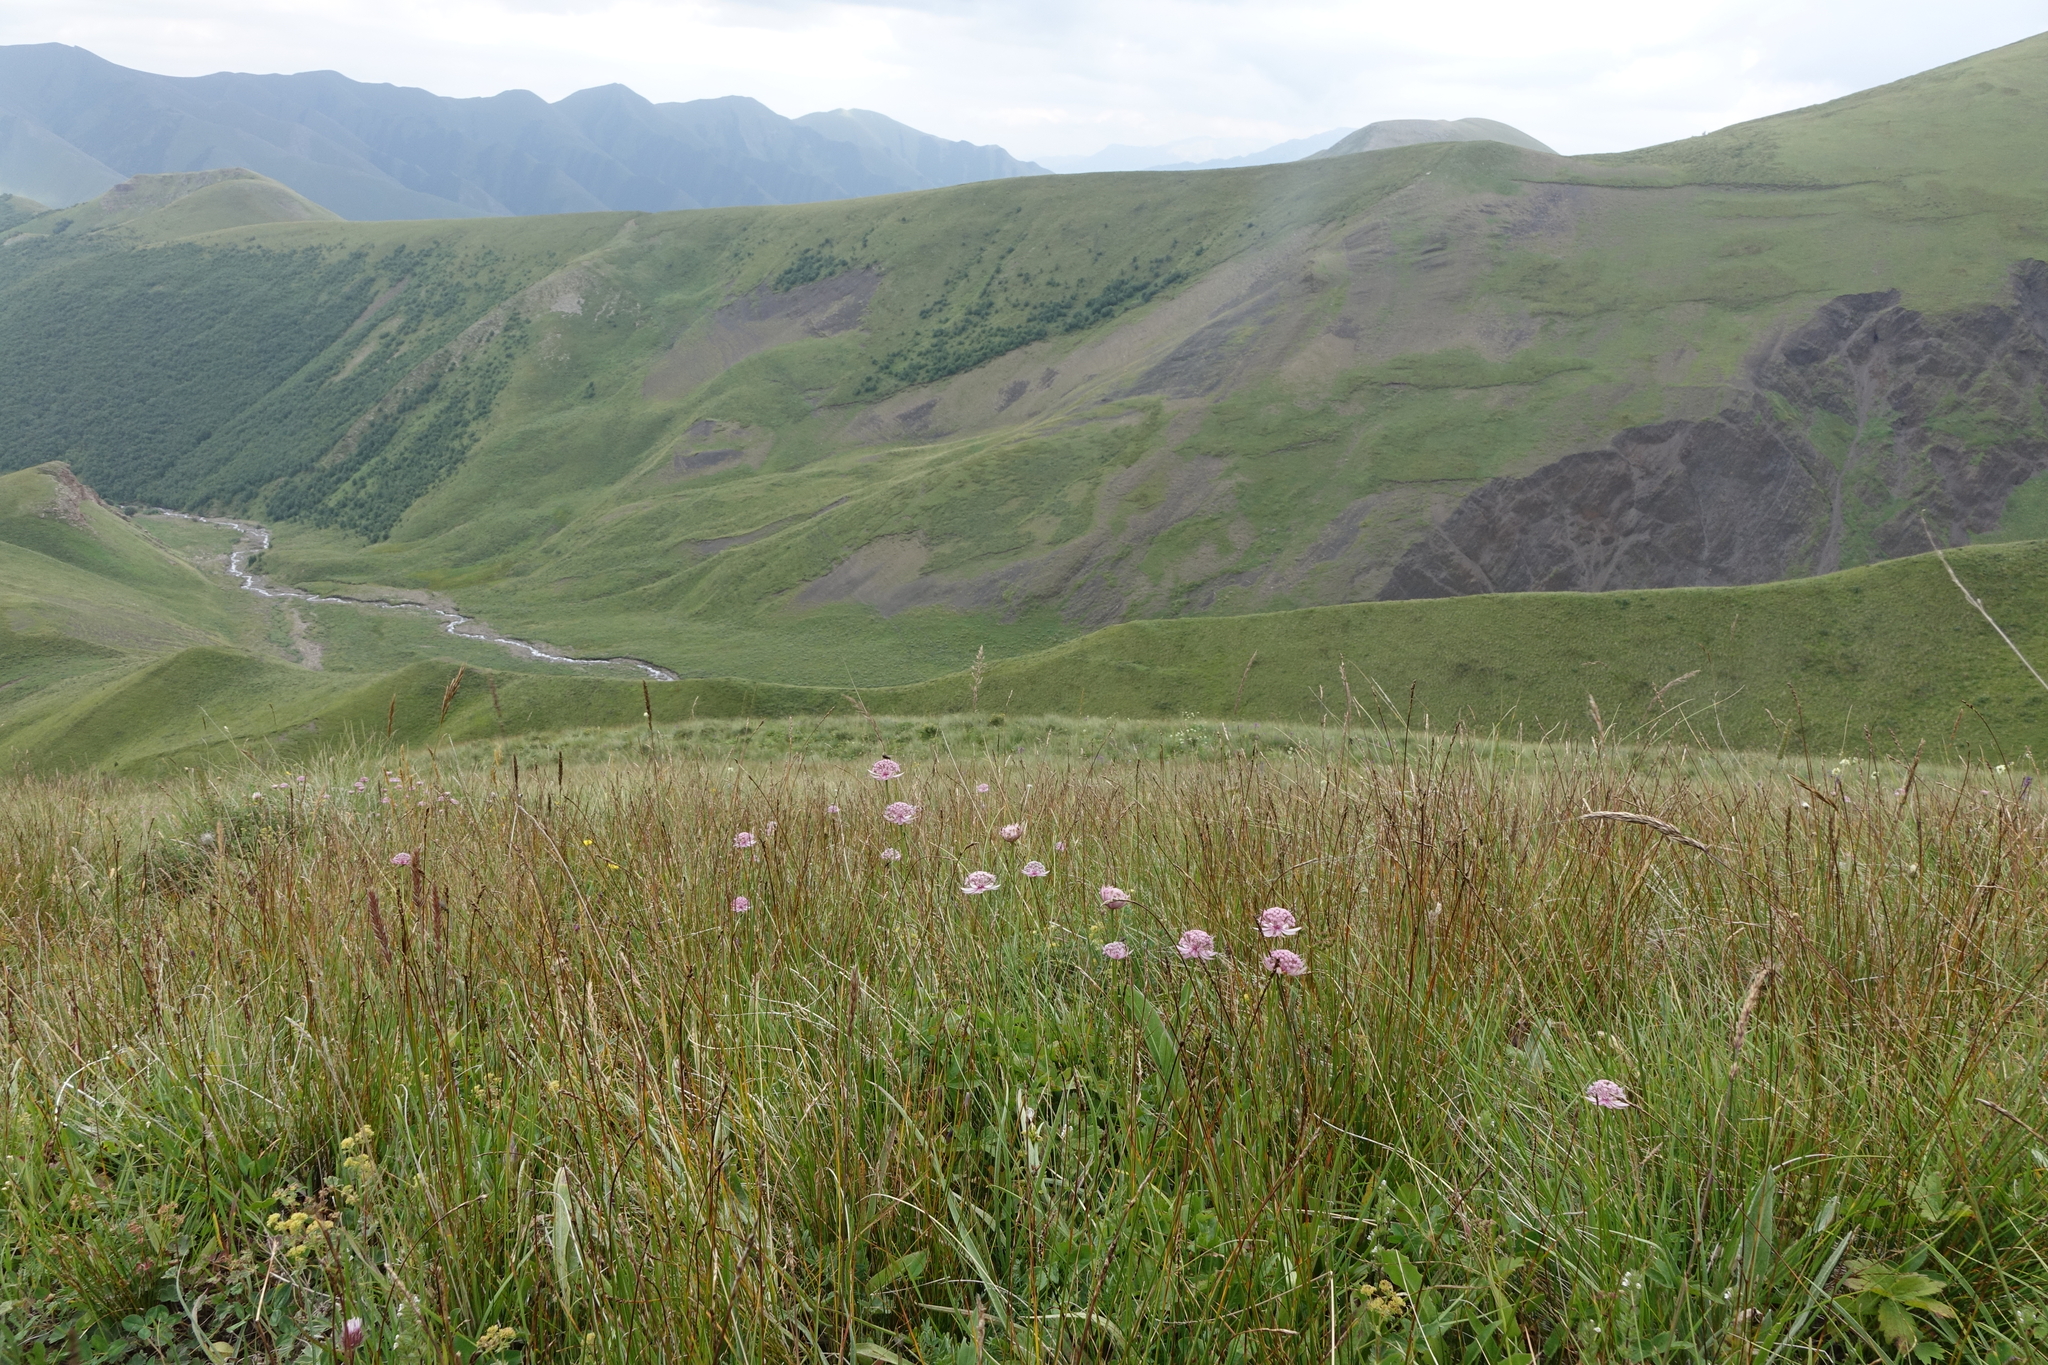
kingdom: Plantae
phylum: Tracheophyta
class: Magnoliopsida
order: Apiales
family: Apiaceae
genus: Astrantia
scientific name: Astrantia trifida
